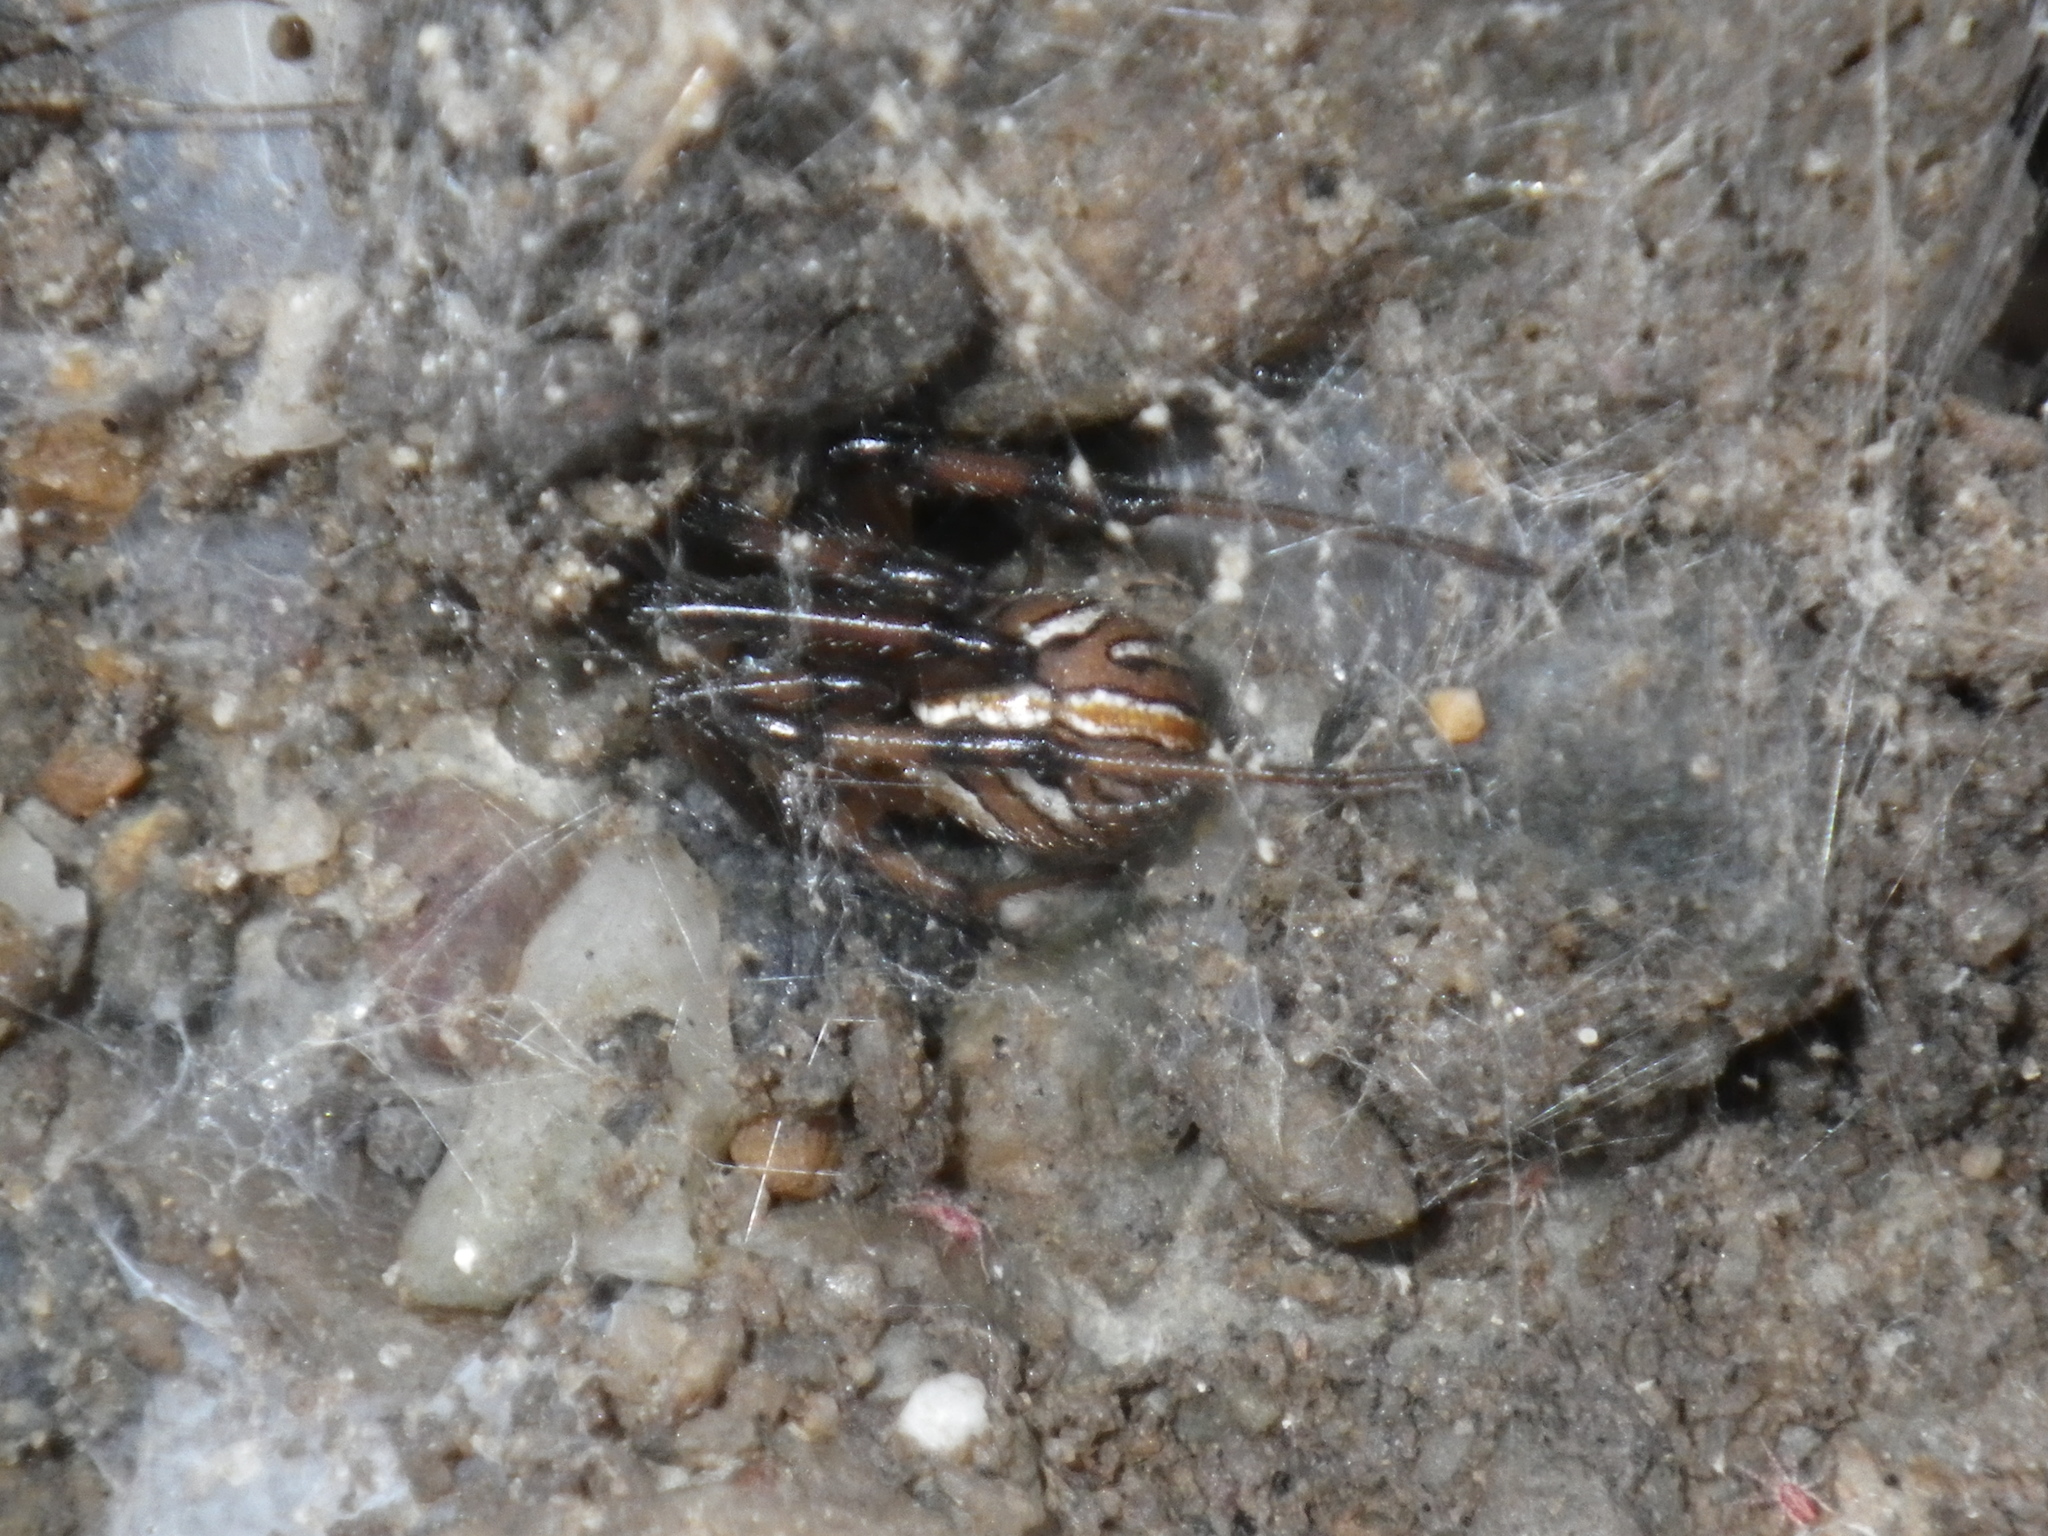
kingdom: Animalia
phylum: Arthropoda
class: Arachnida
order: Araneae
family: Theridiidae
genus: Latrodectus
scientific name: Latrodectus hesperus
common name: Western black widow
